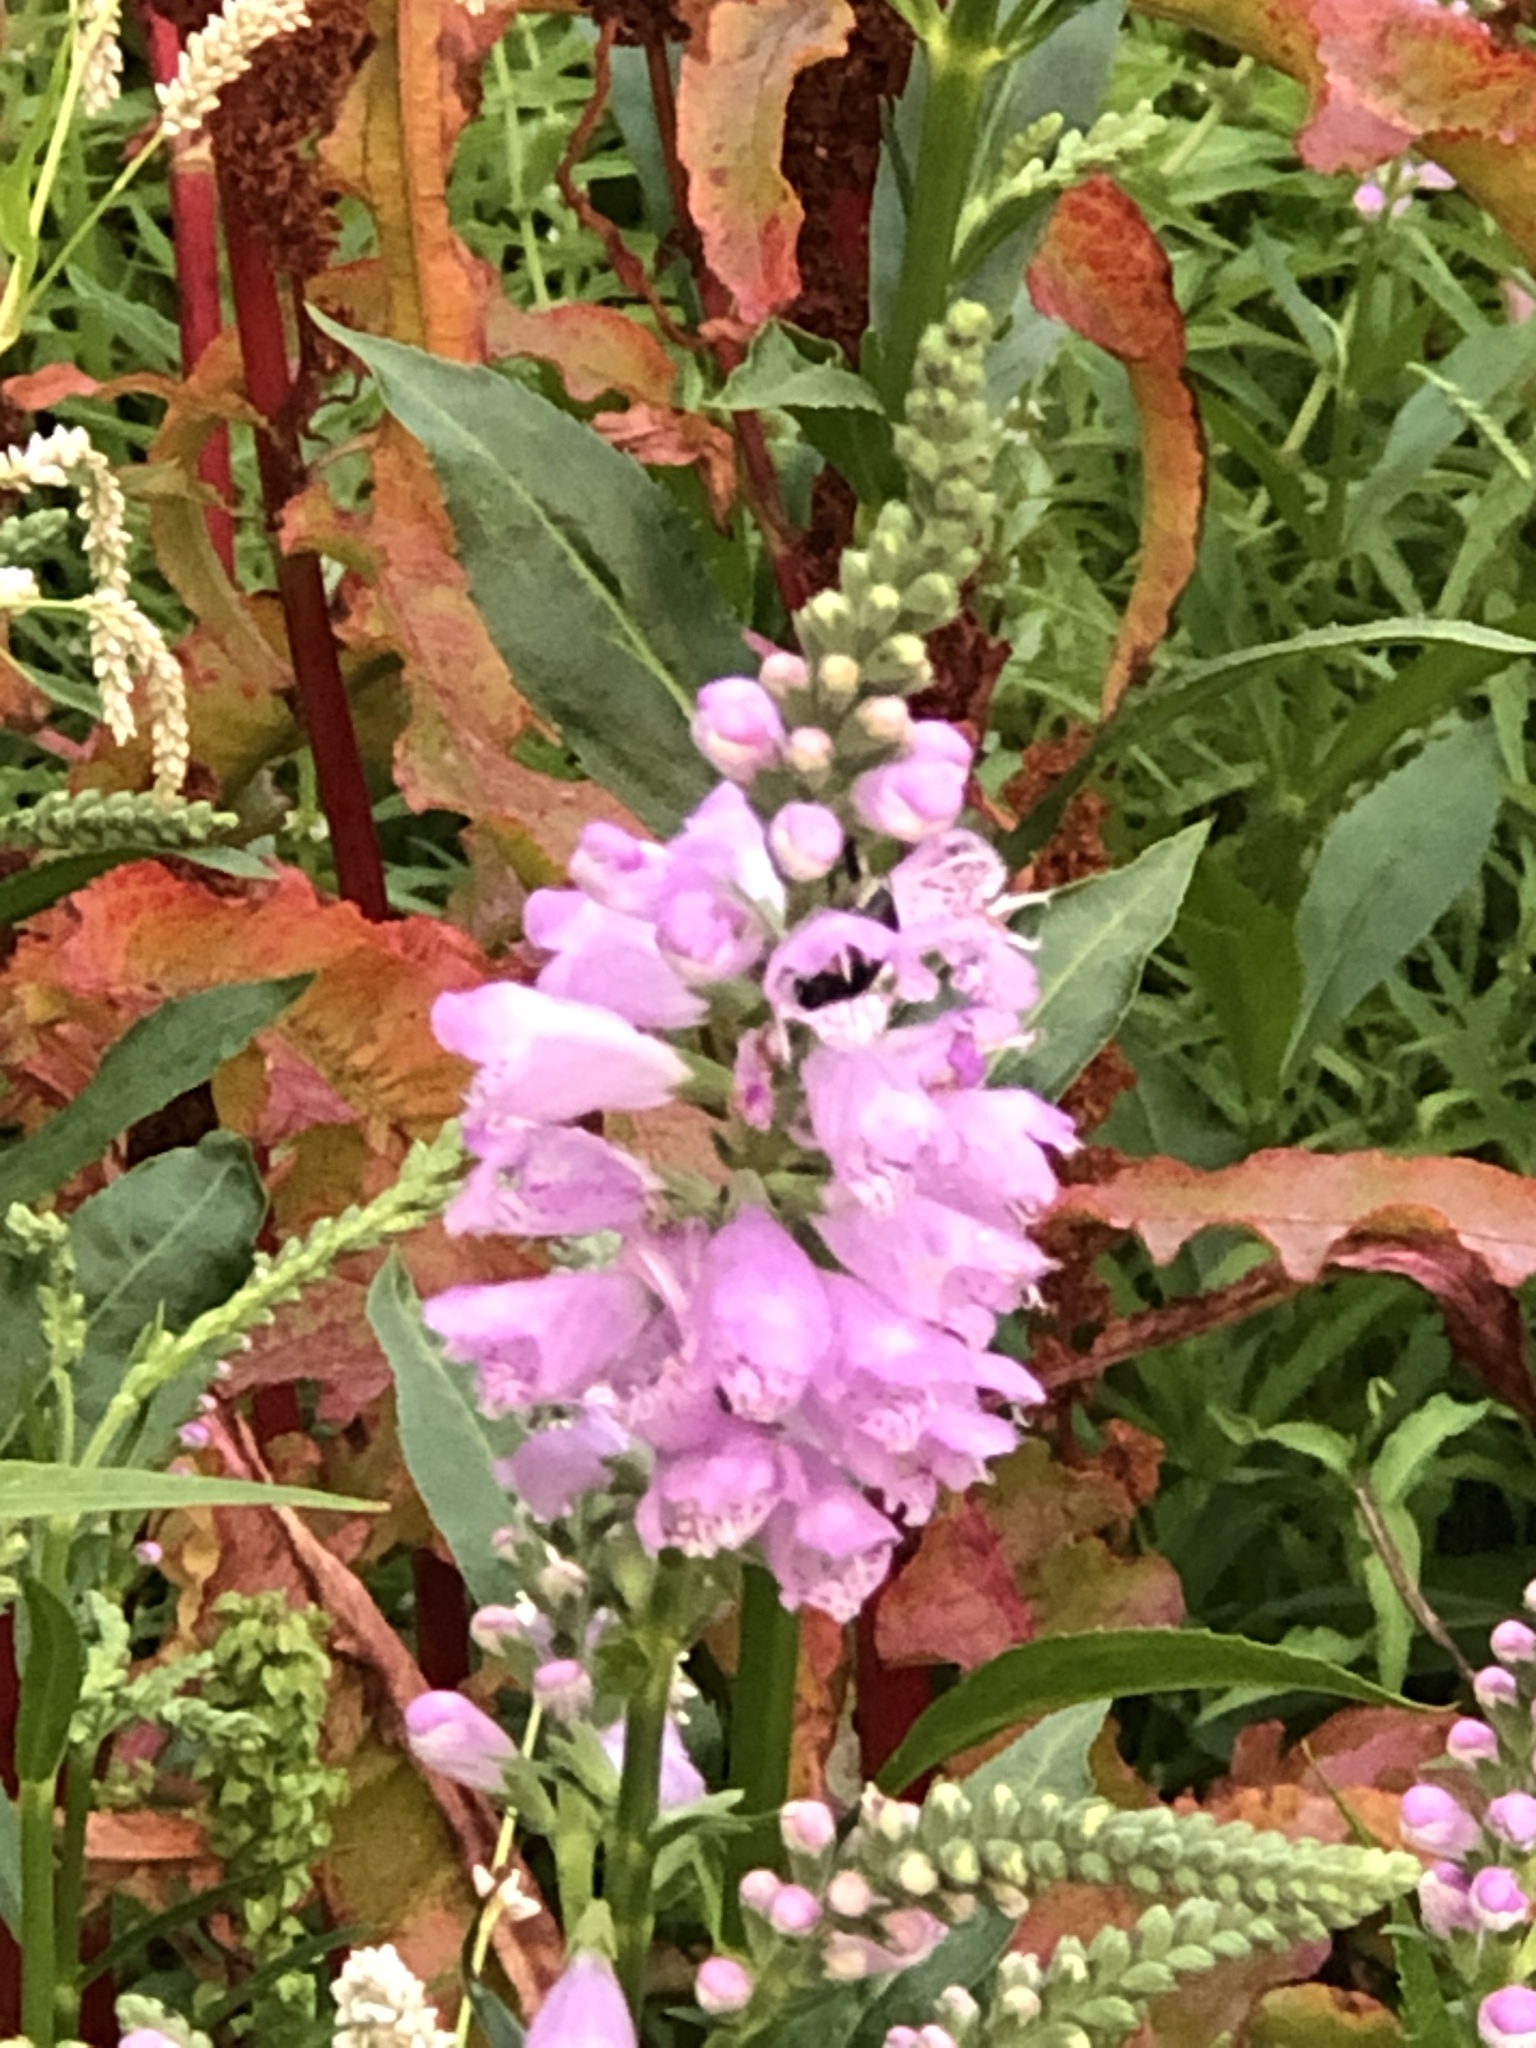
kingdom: Plantae
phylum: Tracheophyta
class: Magnoliopsida
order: Lamiales
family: Lamiaceae
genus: Physostegia
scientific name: Physostegia virginiana
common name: Obedient-plant
